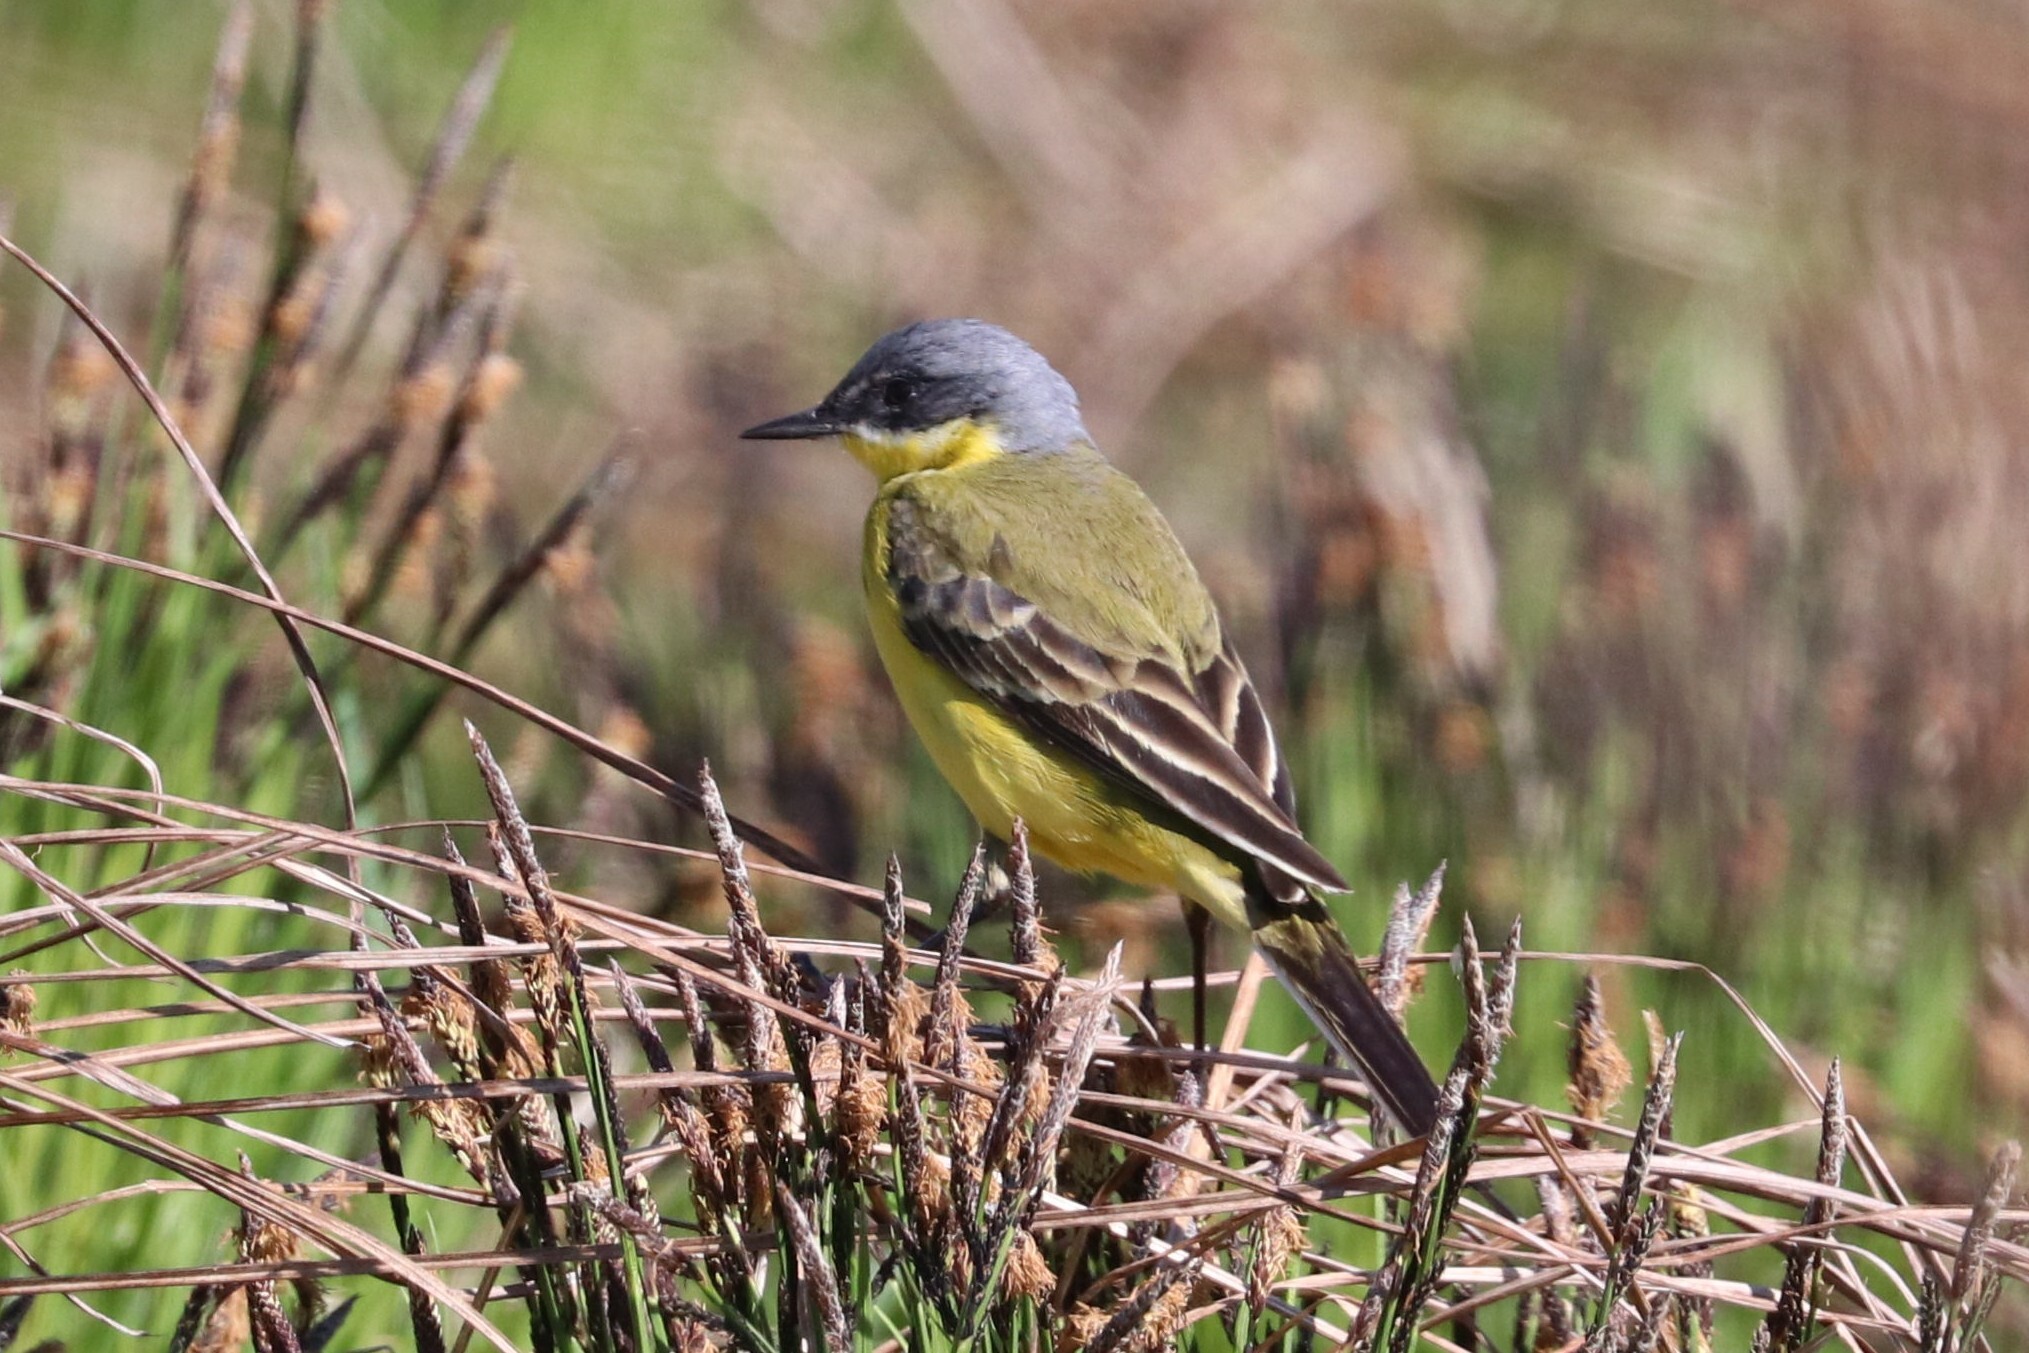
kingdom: Animalia
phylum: Chordata
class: Aves
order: Passeriformes
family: Motacillidae
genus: Motacilla
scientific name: Motacilla flava
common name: Western yellow wagtail
